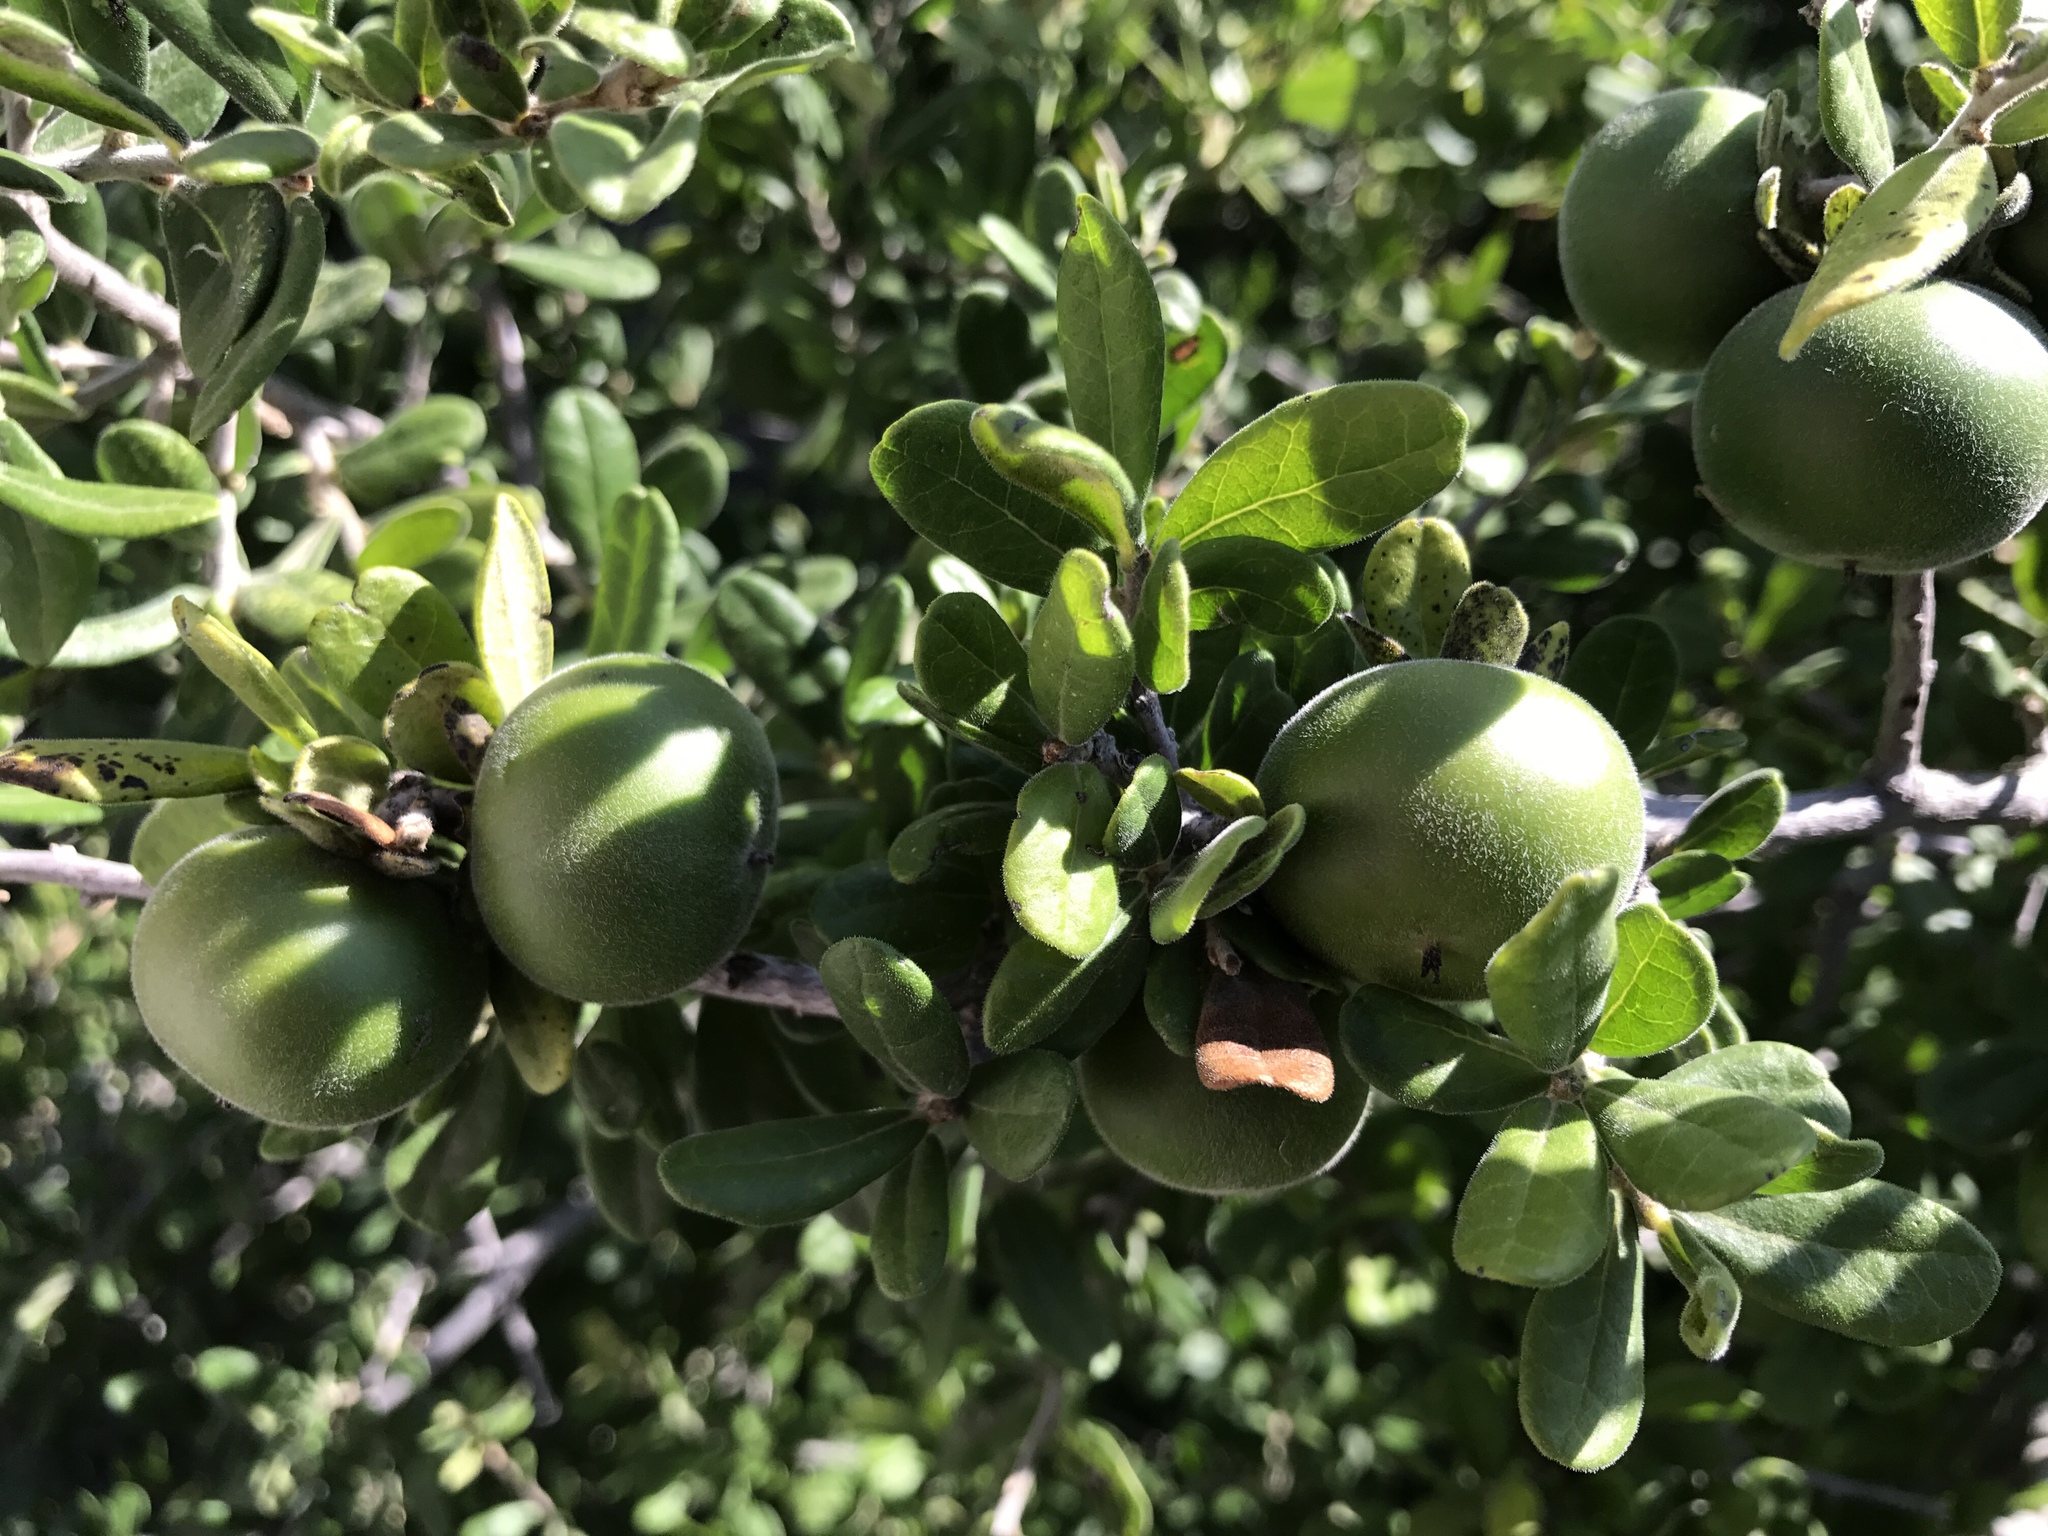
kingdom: Plantae
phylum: Tracheophyta
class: Magnoliopsida
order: Ericales
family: Ebenaceae
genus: Diospyros
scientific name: Diospyros texana
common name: Texas persimmon
